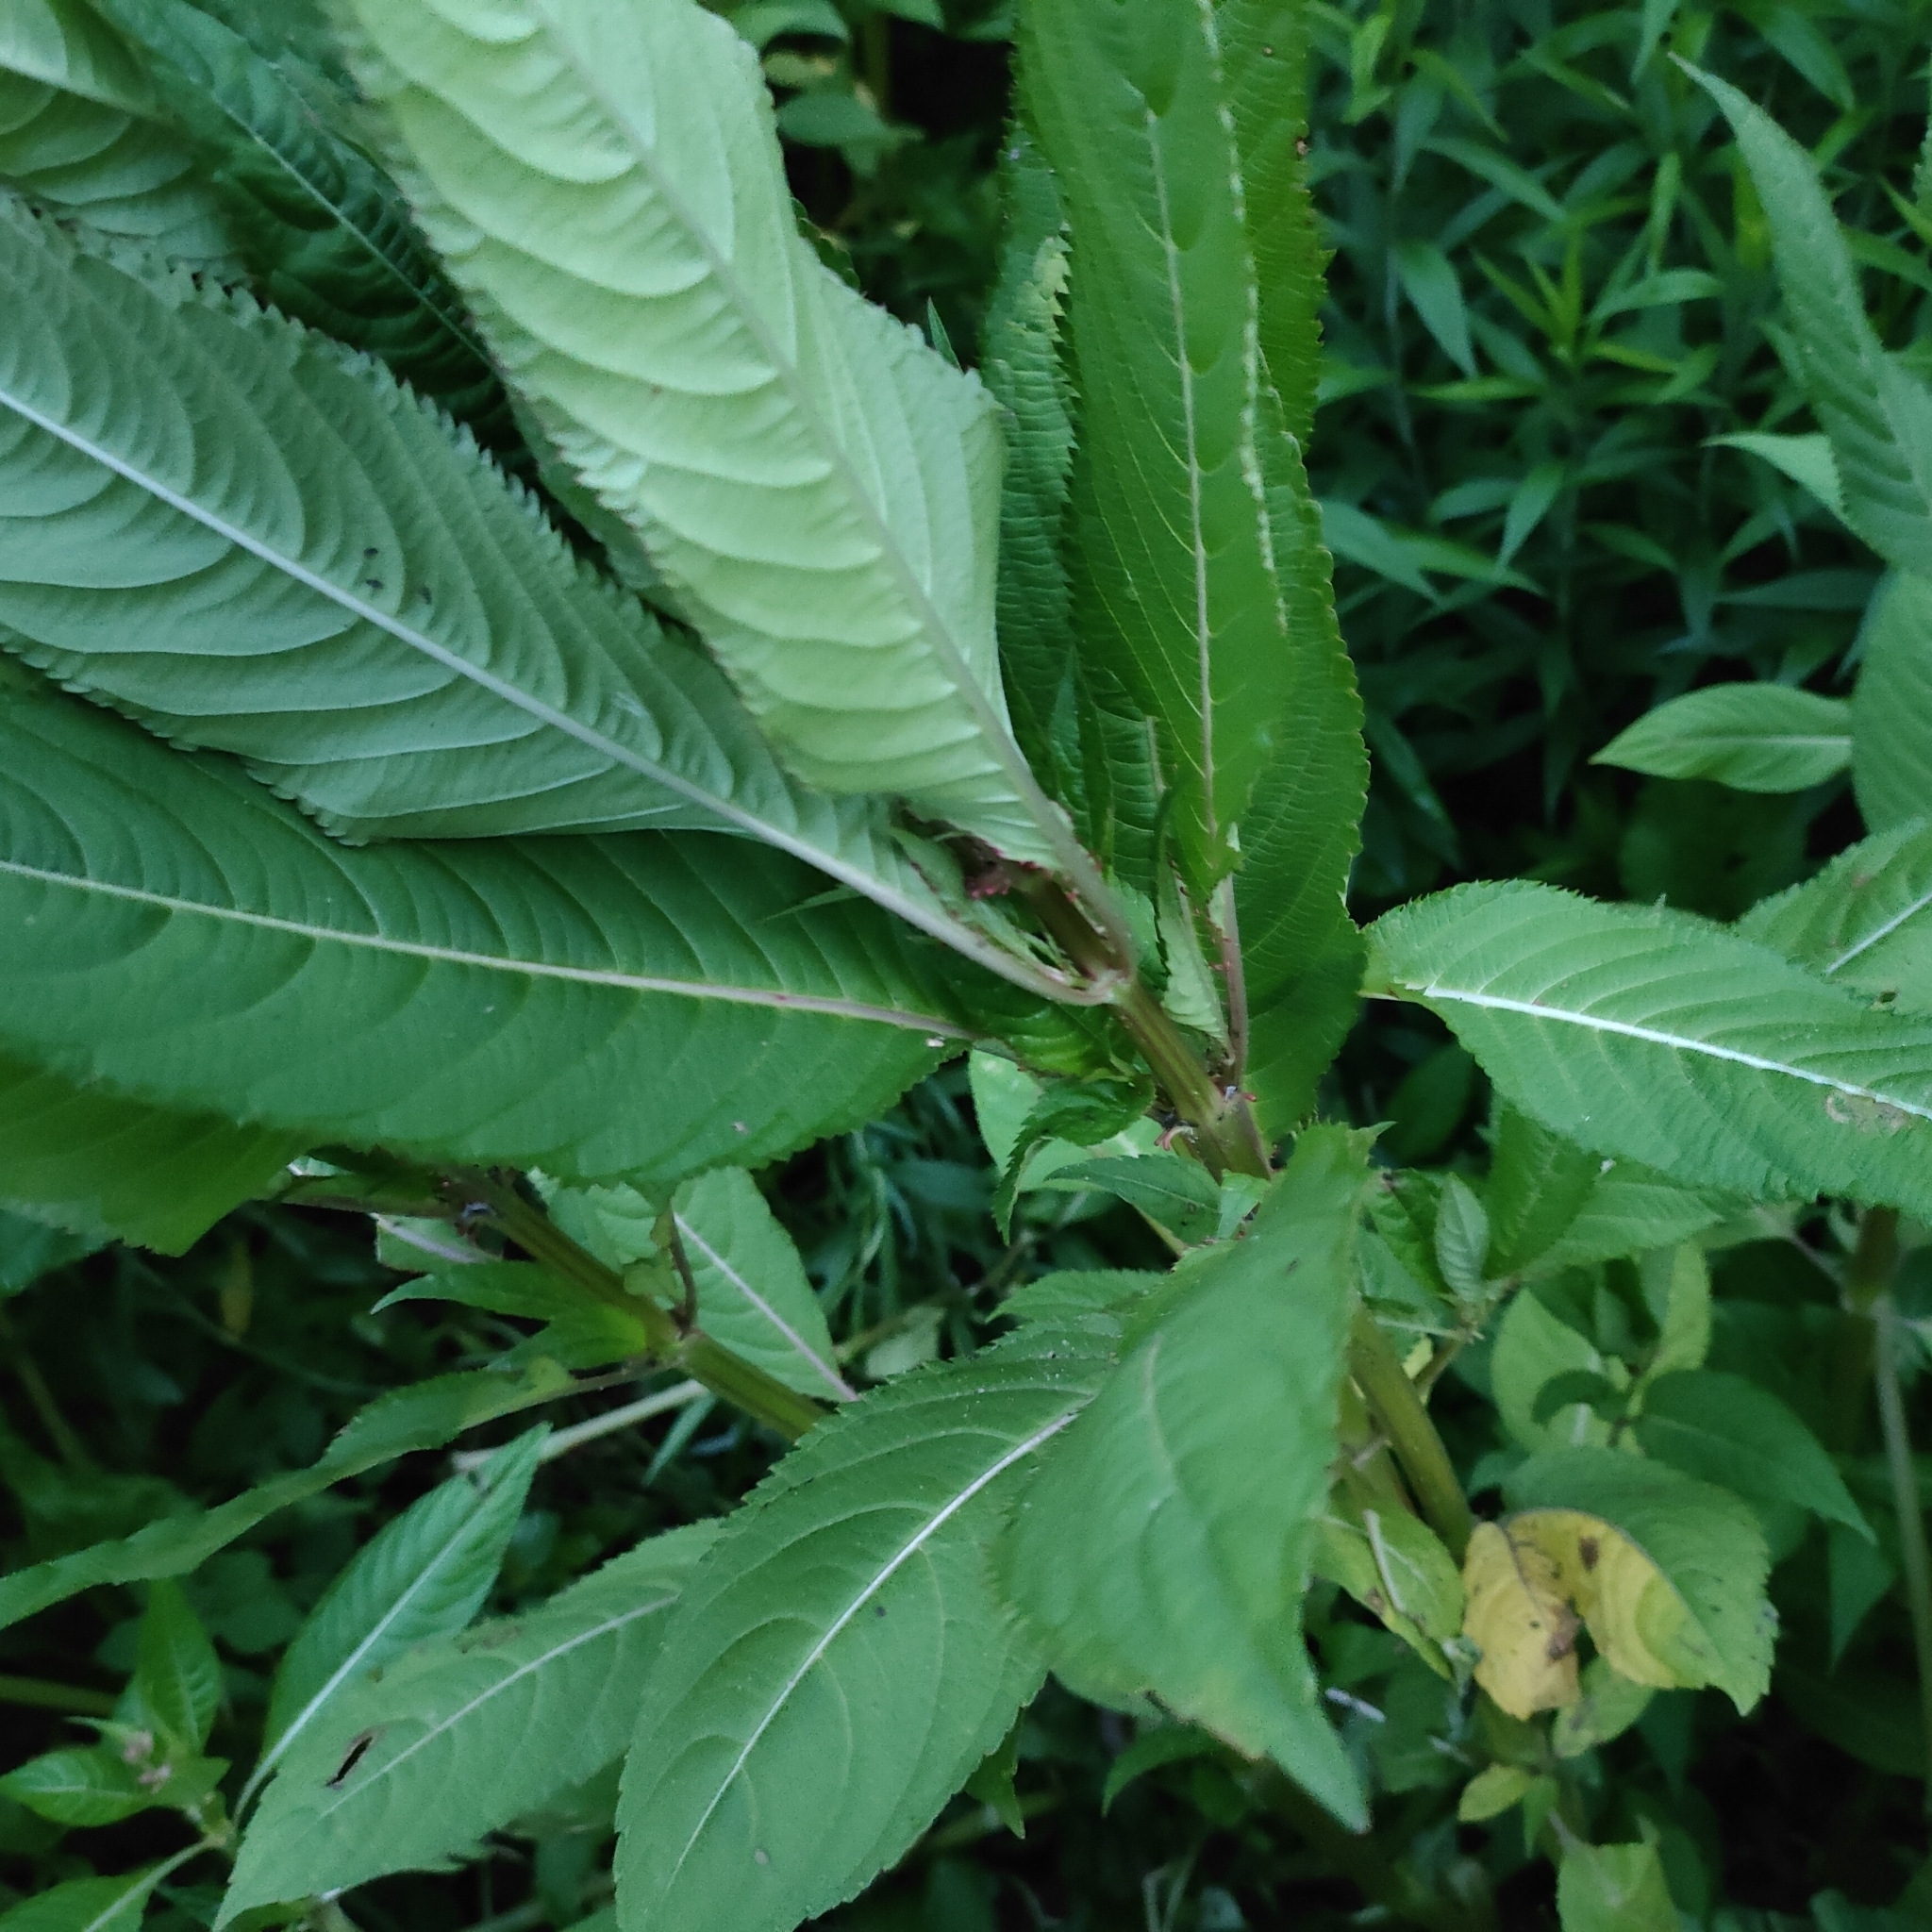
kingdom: Plantae
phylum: Tracheophyta
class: Magnoliopsida
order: Ericales
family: Balsaminaceae
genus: Impatiens
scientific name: Impatiens glandulifera
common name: Himalayan balsam
